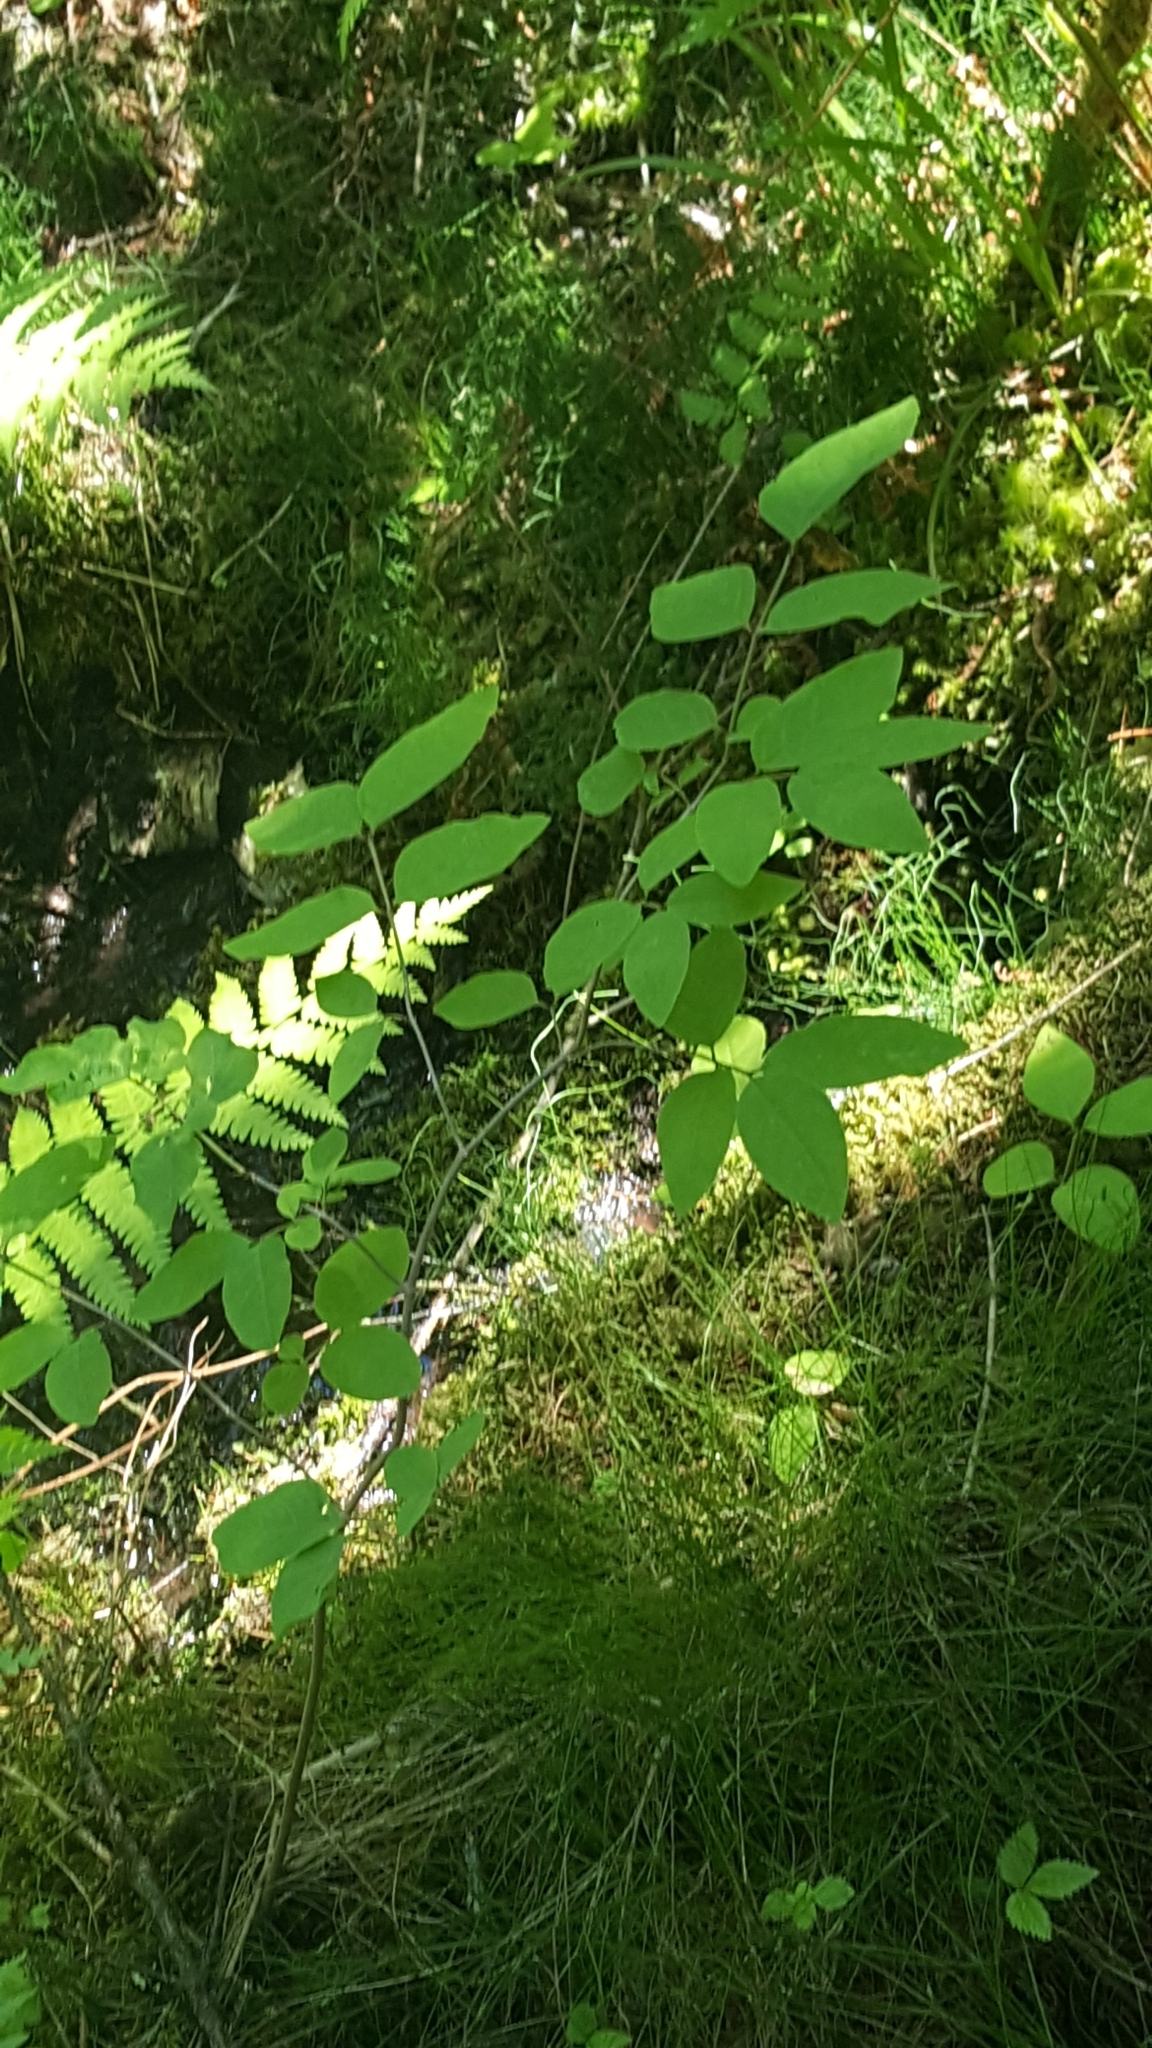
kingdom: Plantae
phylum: Tracheophyta
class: Magnoliopsida
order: Dipsacales
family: Caprifoliaceae
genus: Lonicera
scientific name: Lonicera canadensis
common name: American fly-honeysuckle
